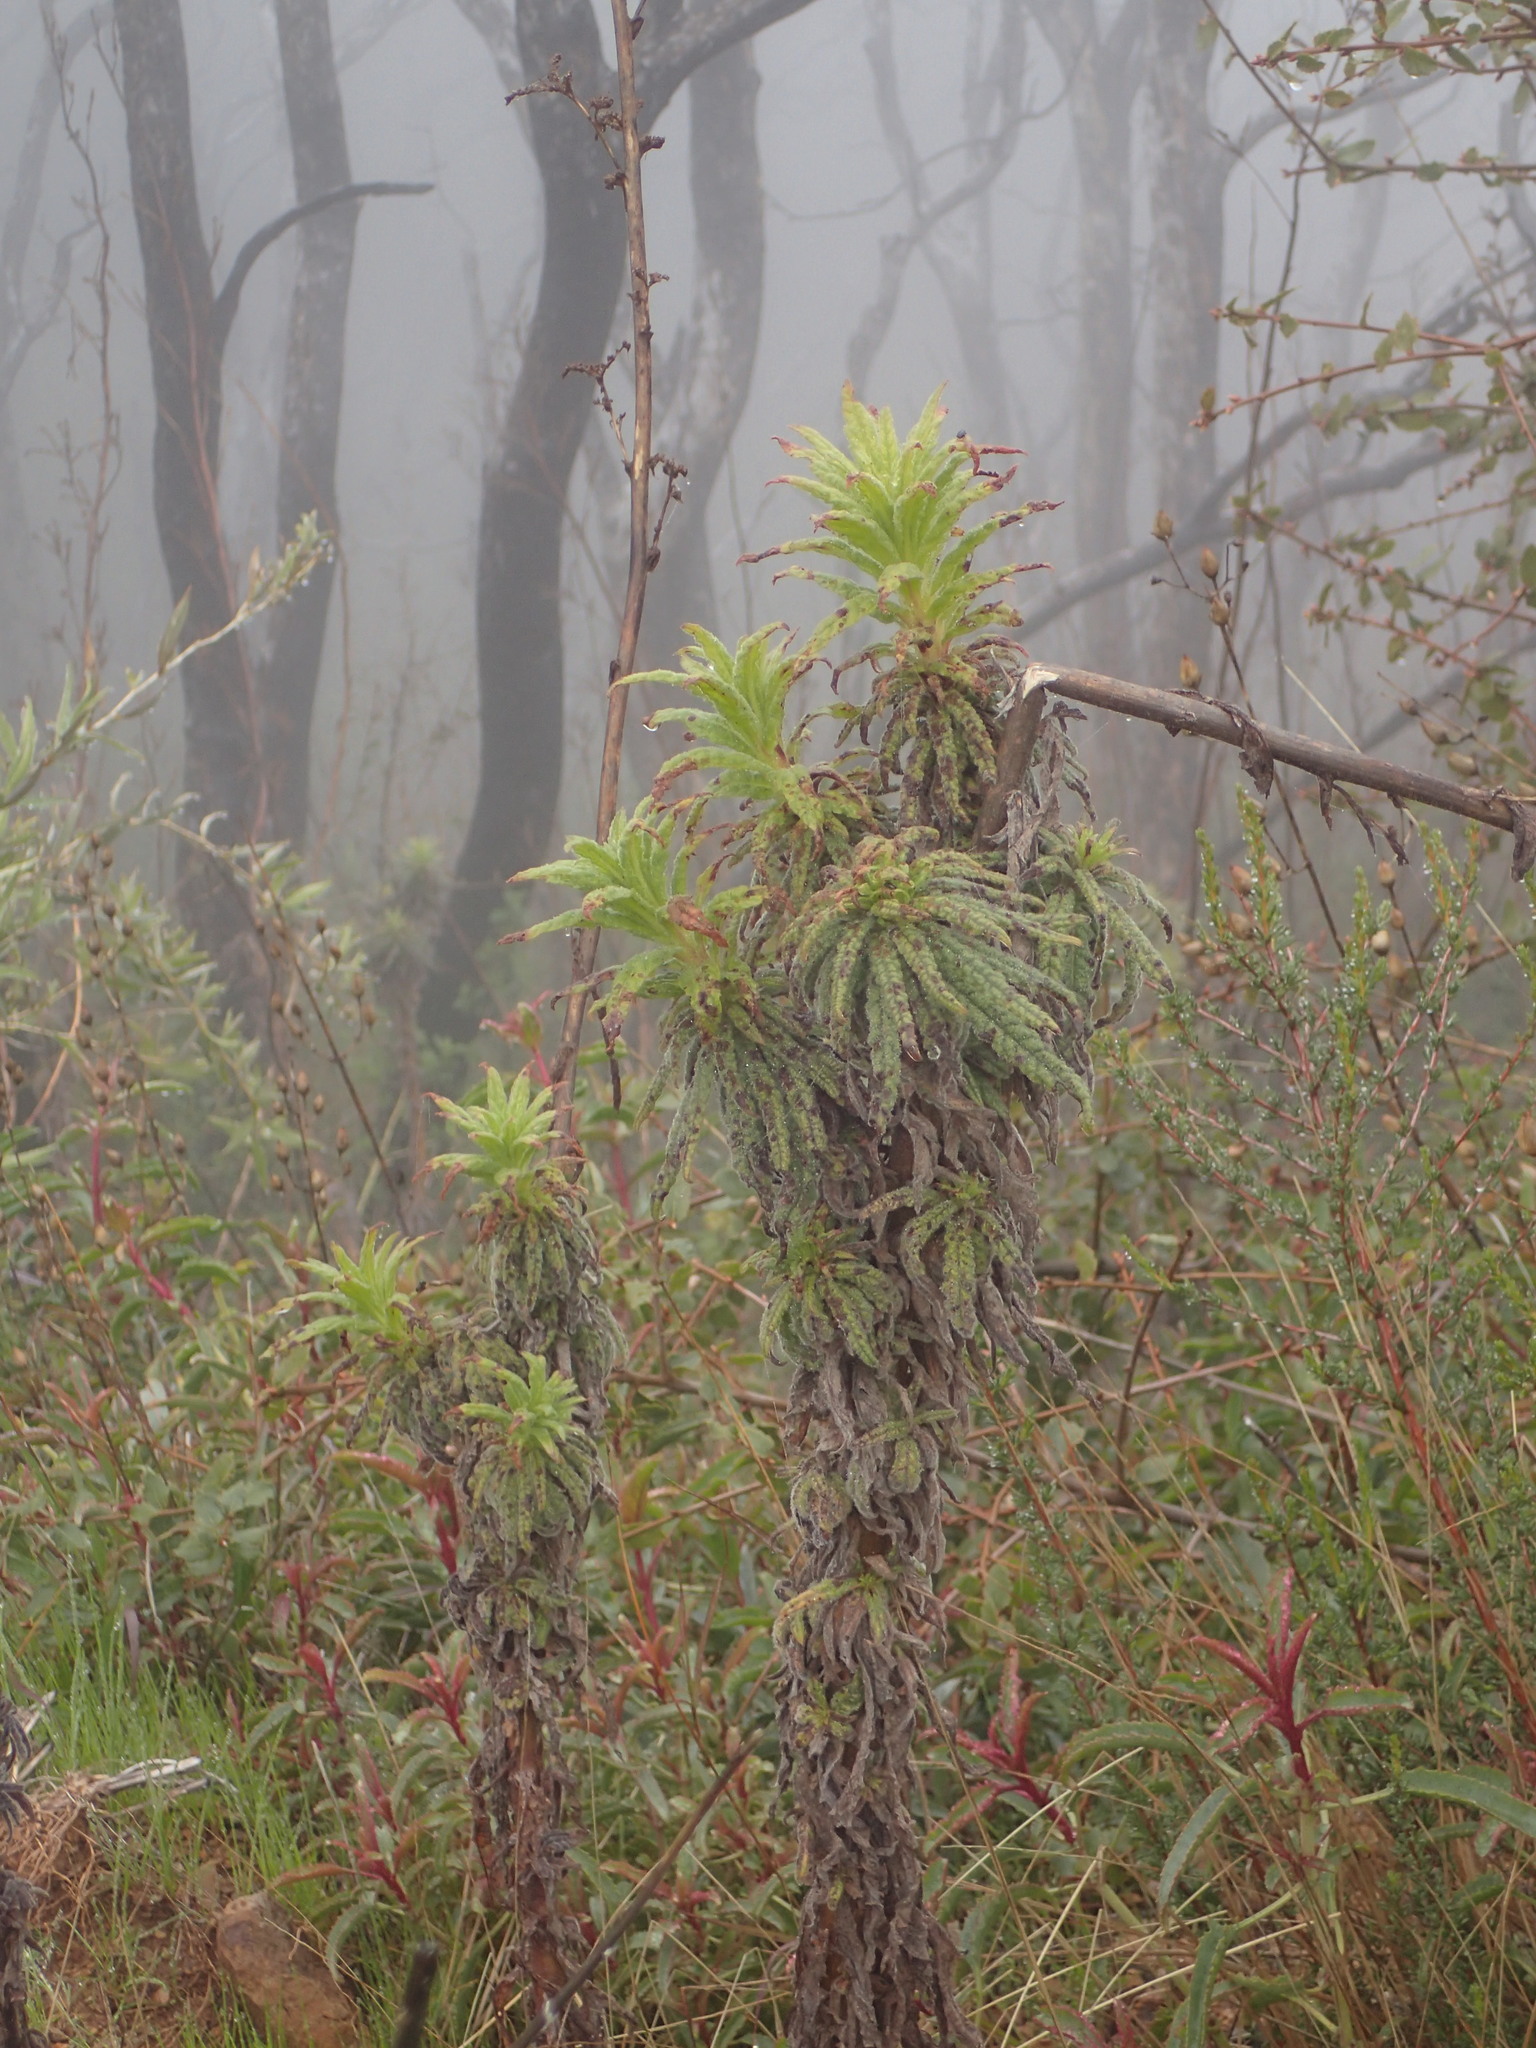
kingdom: Plantae
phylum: Tracheophyta
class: Magnoliopsida
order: Boraginales
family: Namaceae
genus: Turricula
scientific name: Turricula parryi
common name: Poodle-dog-bush
